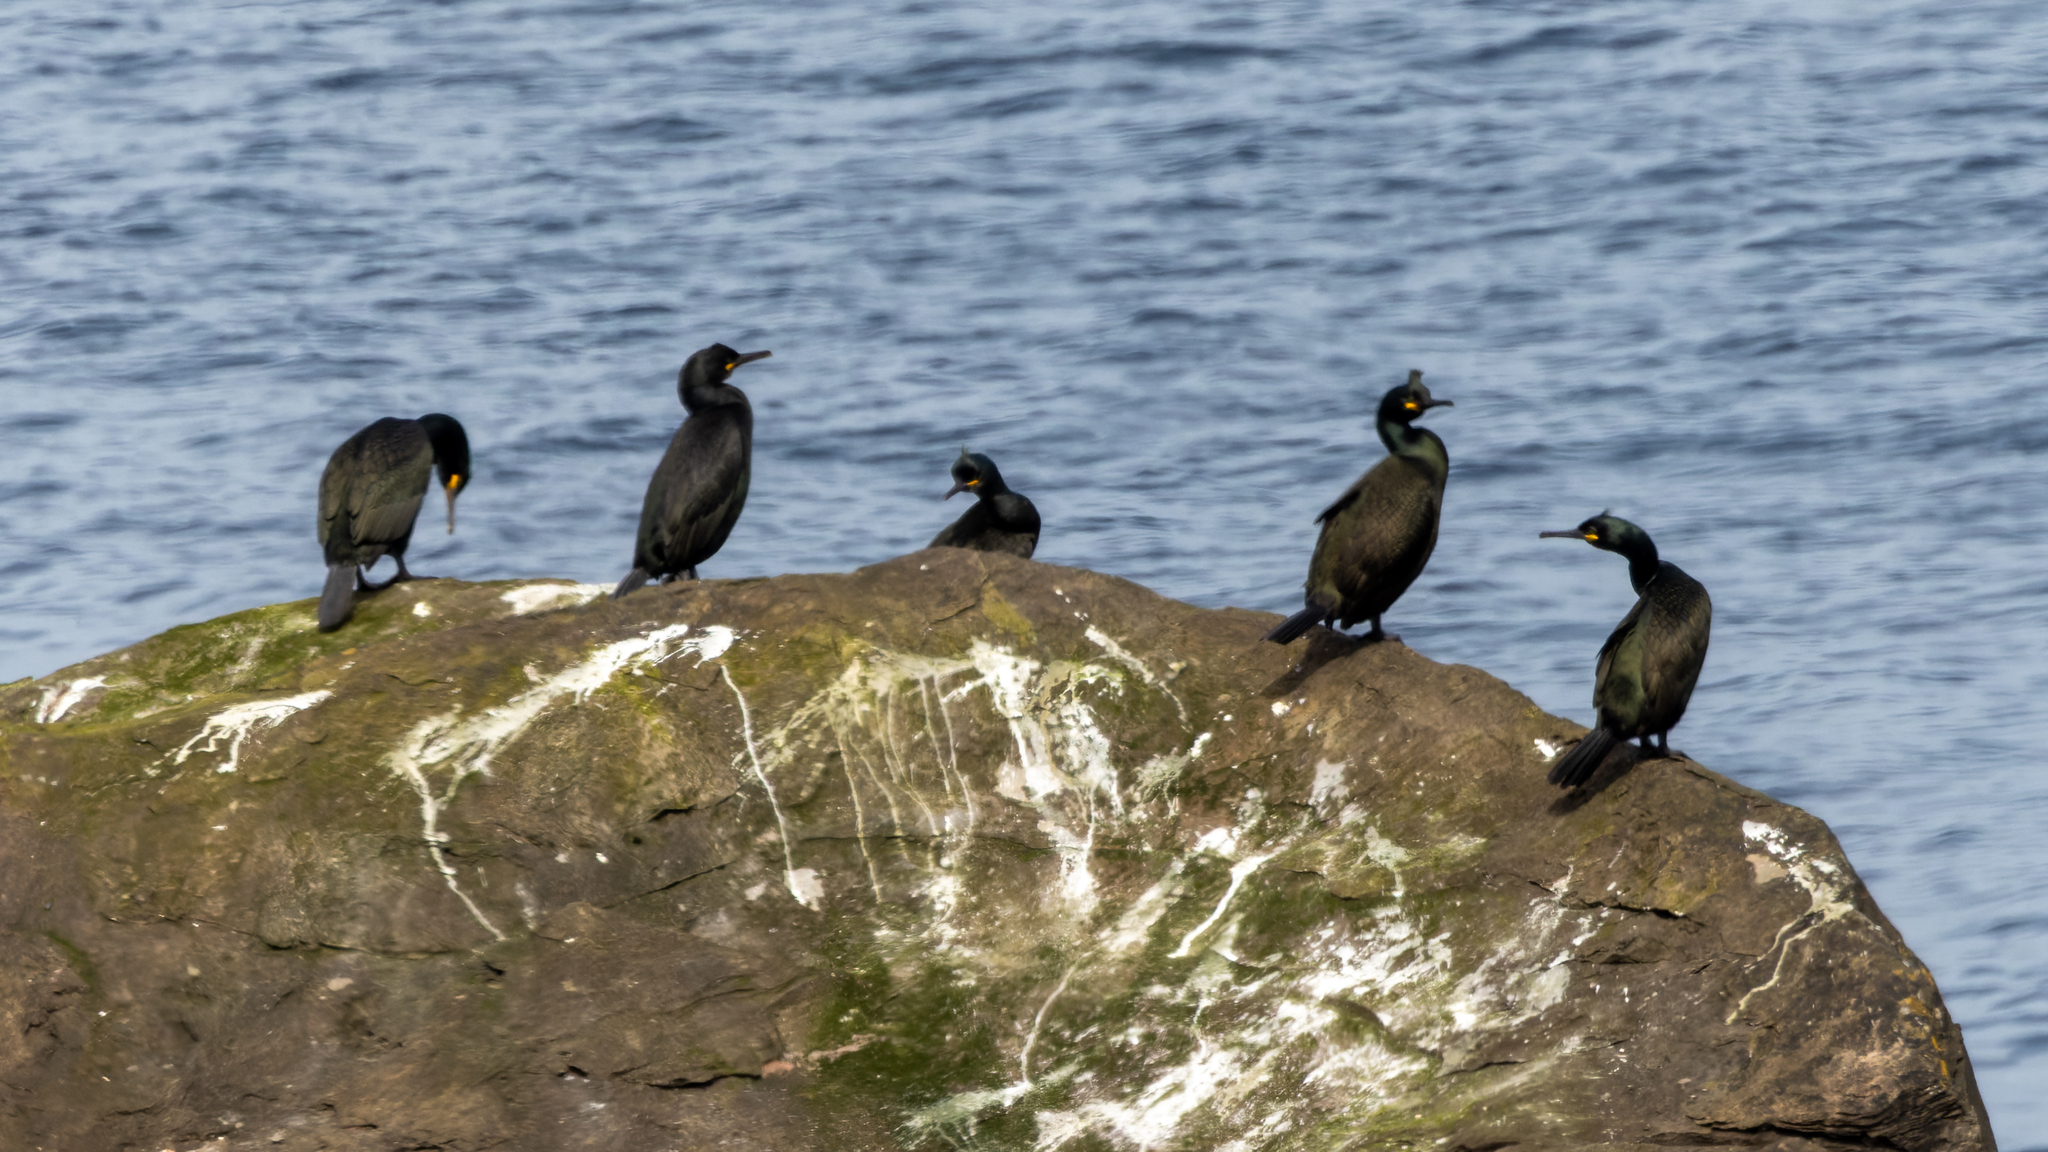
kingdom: Animalia
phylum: Chordata
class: Aves
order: Suliformes
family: Phalacrocoracidae
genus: Phalacrocorax
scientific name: Phalacrocorax aristotelis
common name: European shag
